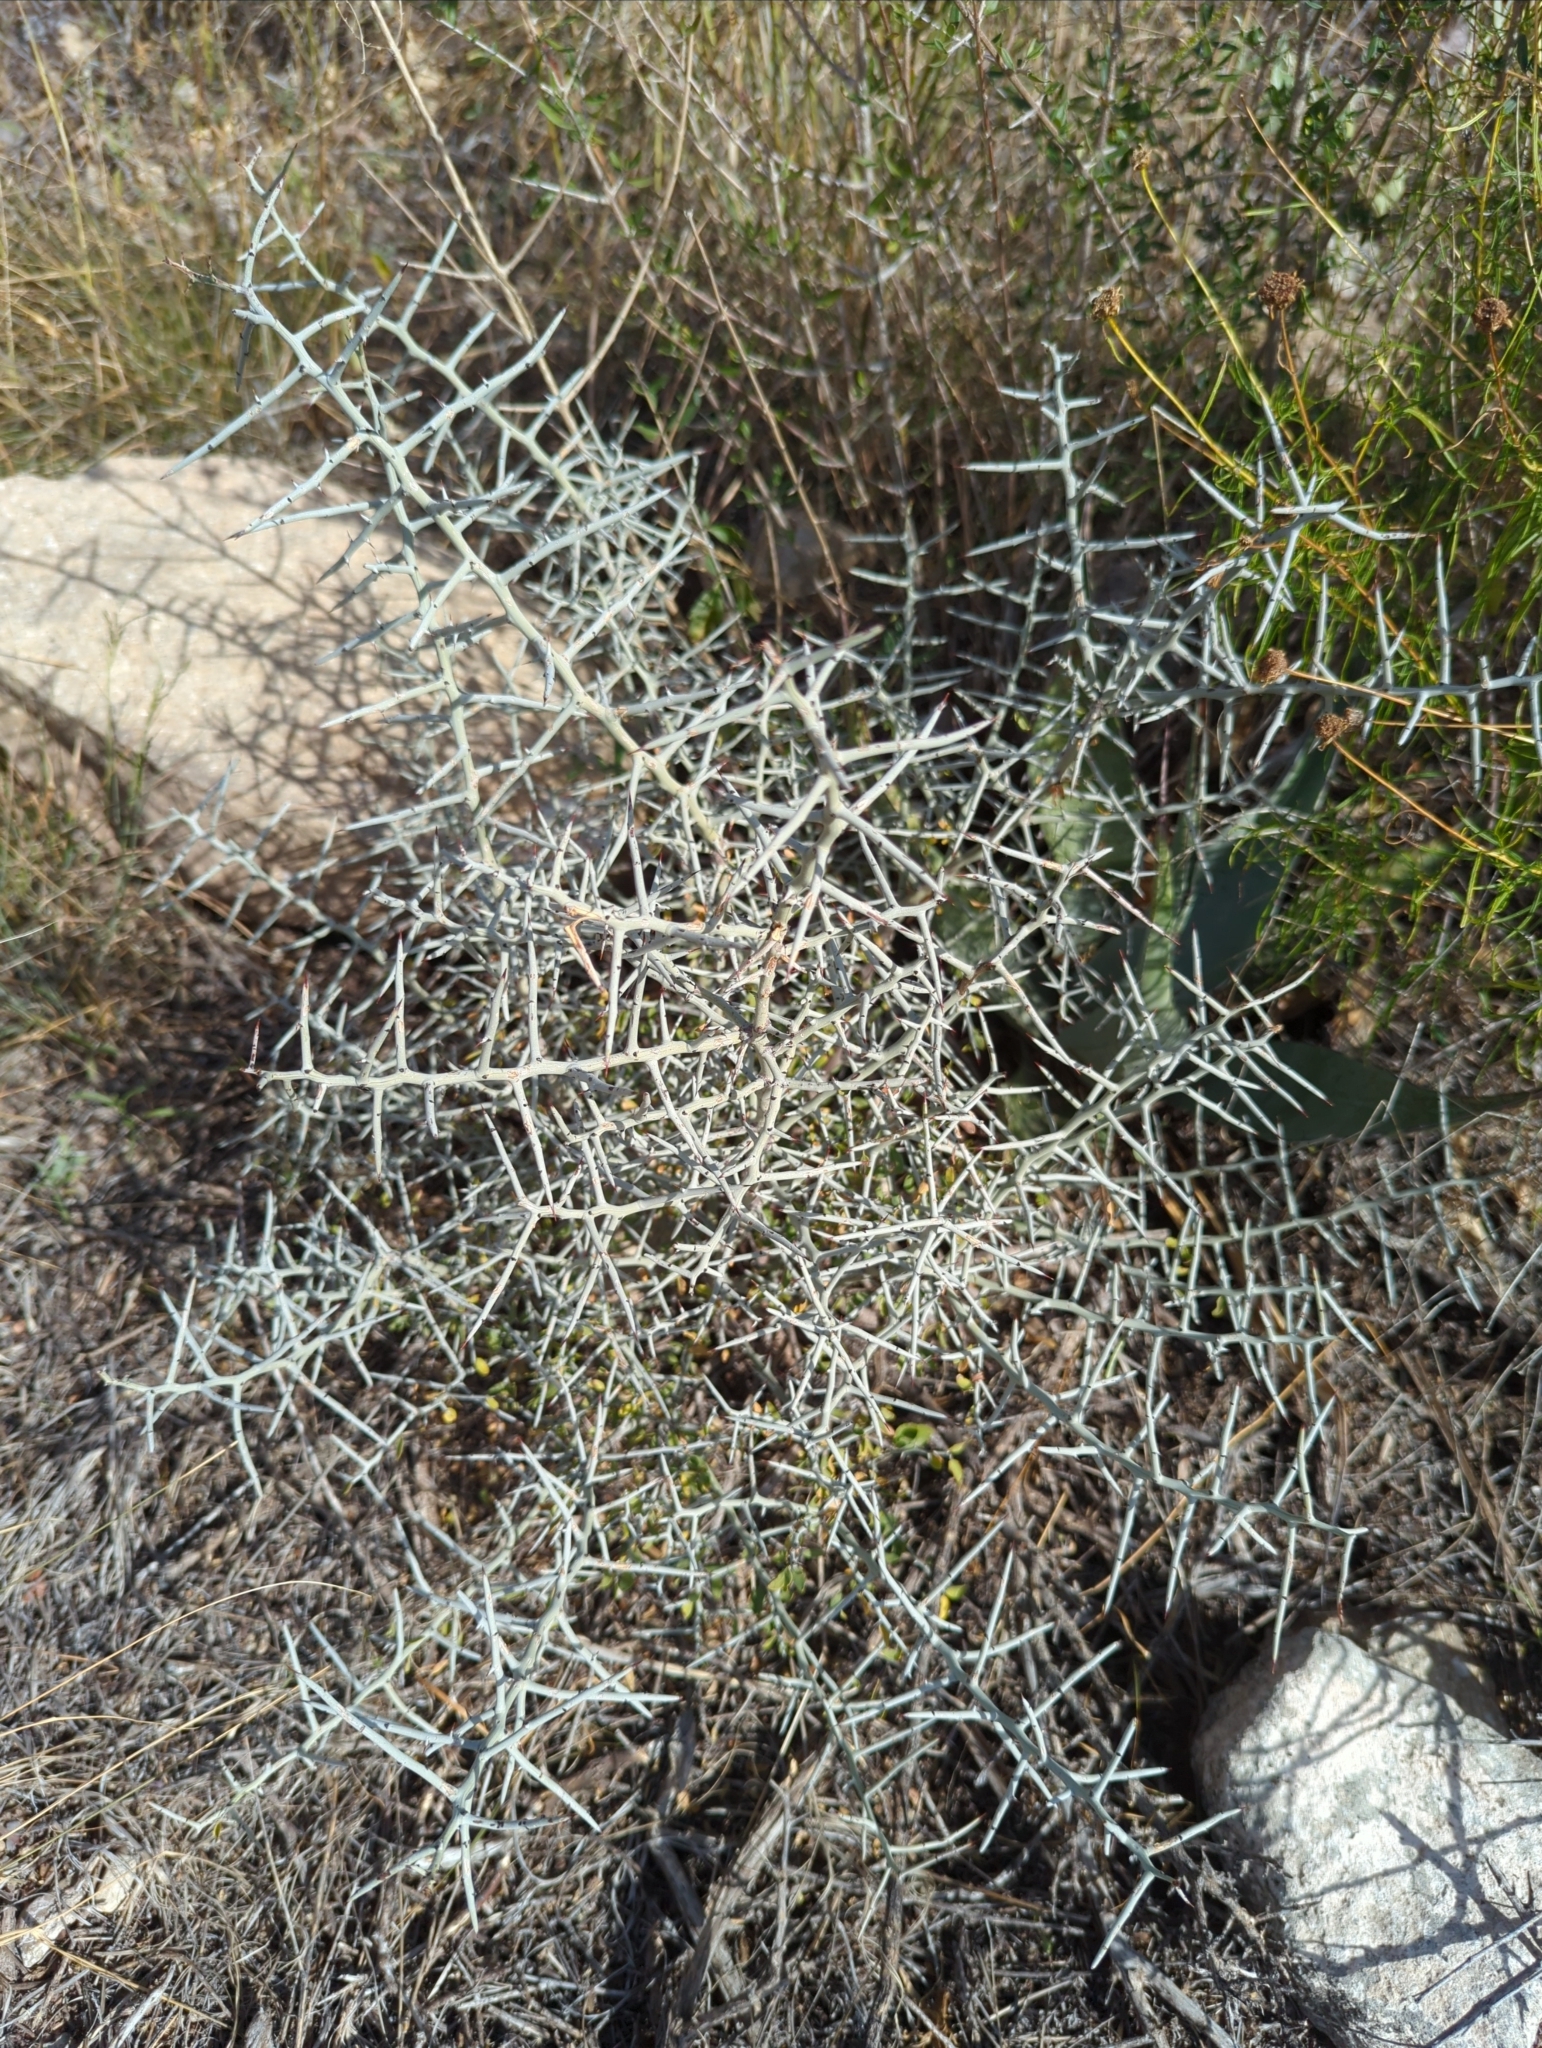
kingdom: Plantae
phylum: Tracheophyta
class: Magnoliopsida
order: Rosales
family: Rhamnaceae
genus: Sarcomphalus
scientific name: Sarcomphalus obtusifolius
